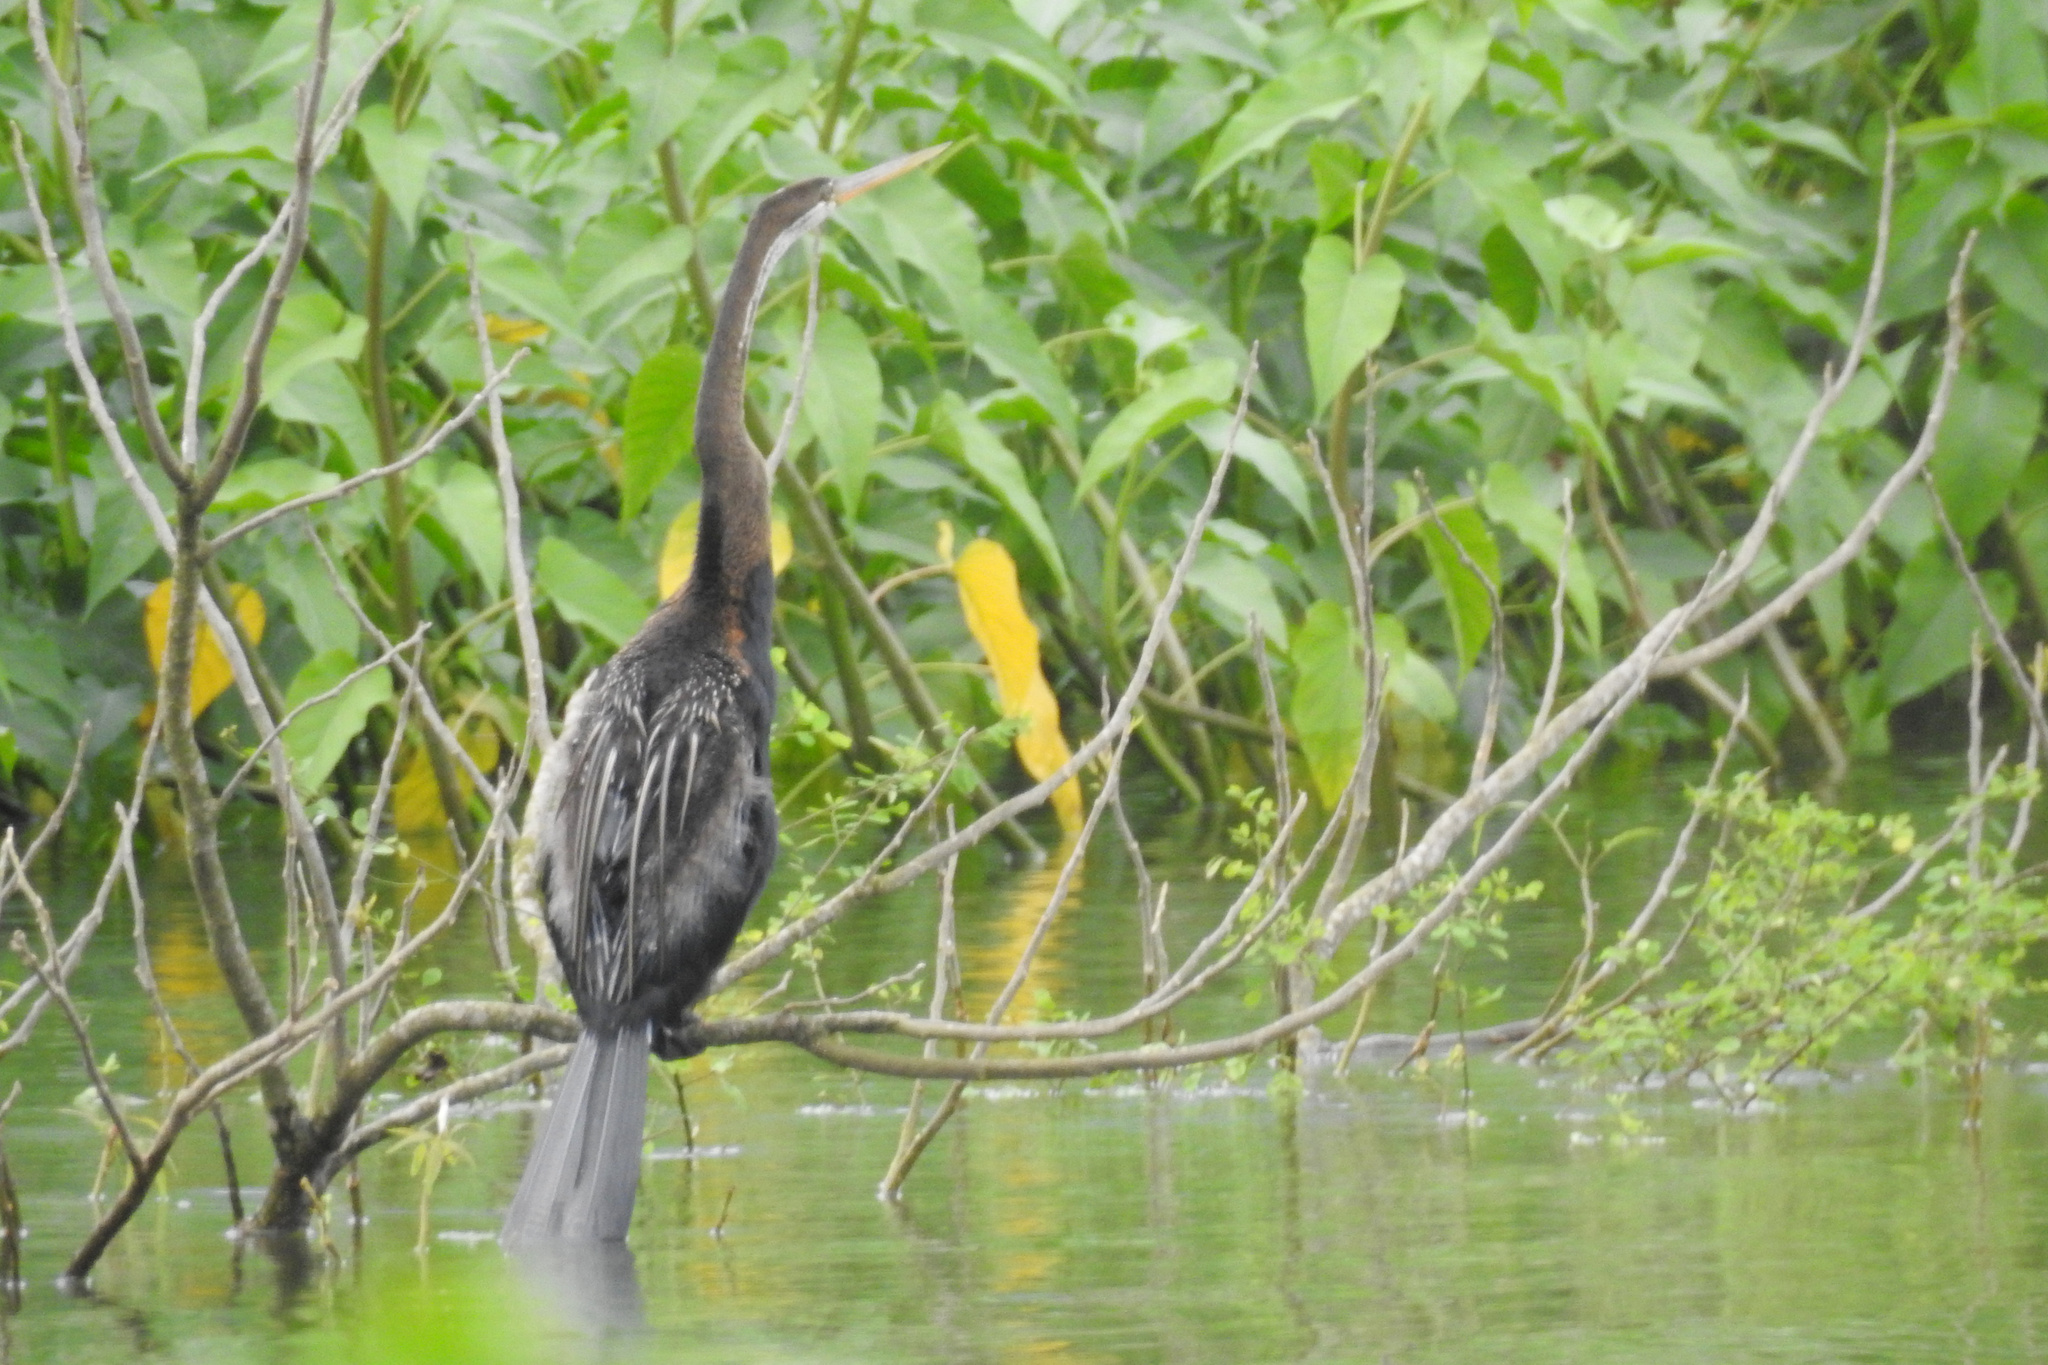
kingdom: Animalia
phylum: Chordata
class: Aves
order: Suliformes
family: Anhingidae
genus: Anhinga
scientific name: Anhinga melanogaster
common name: Oriental darter
